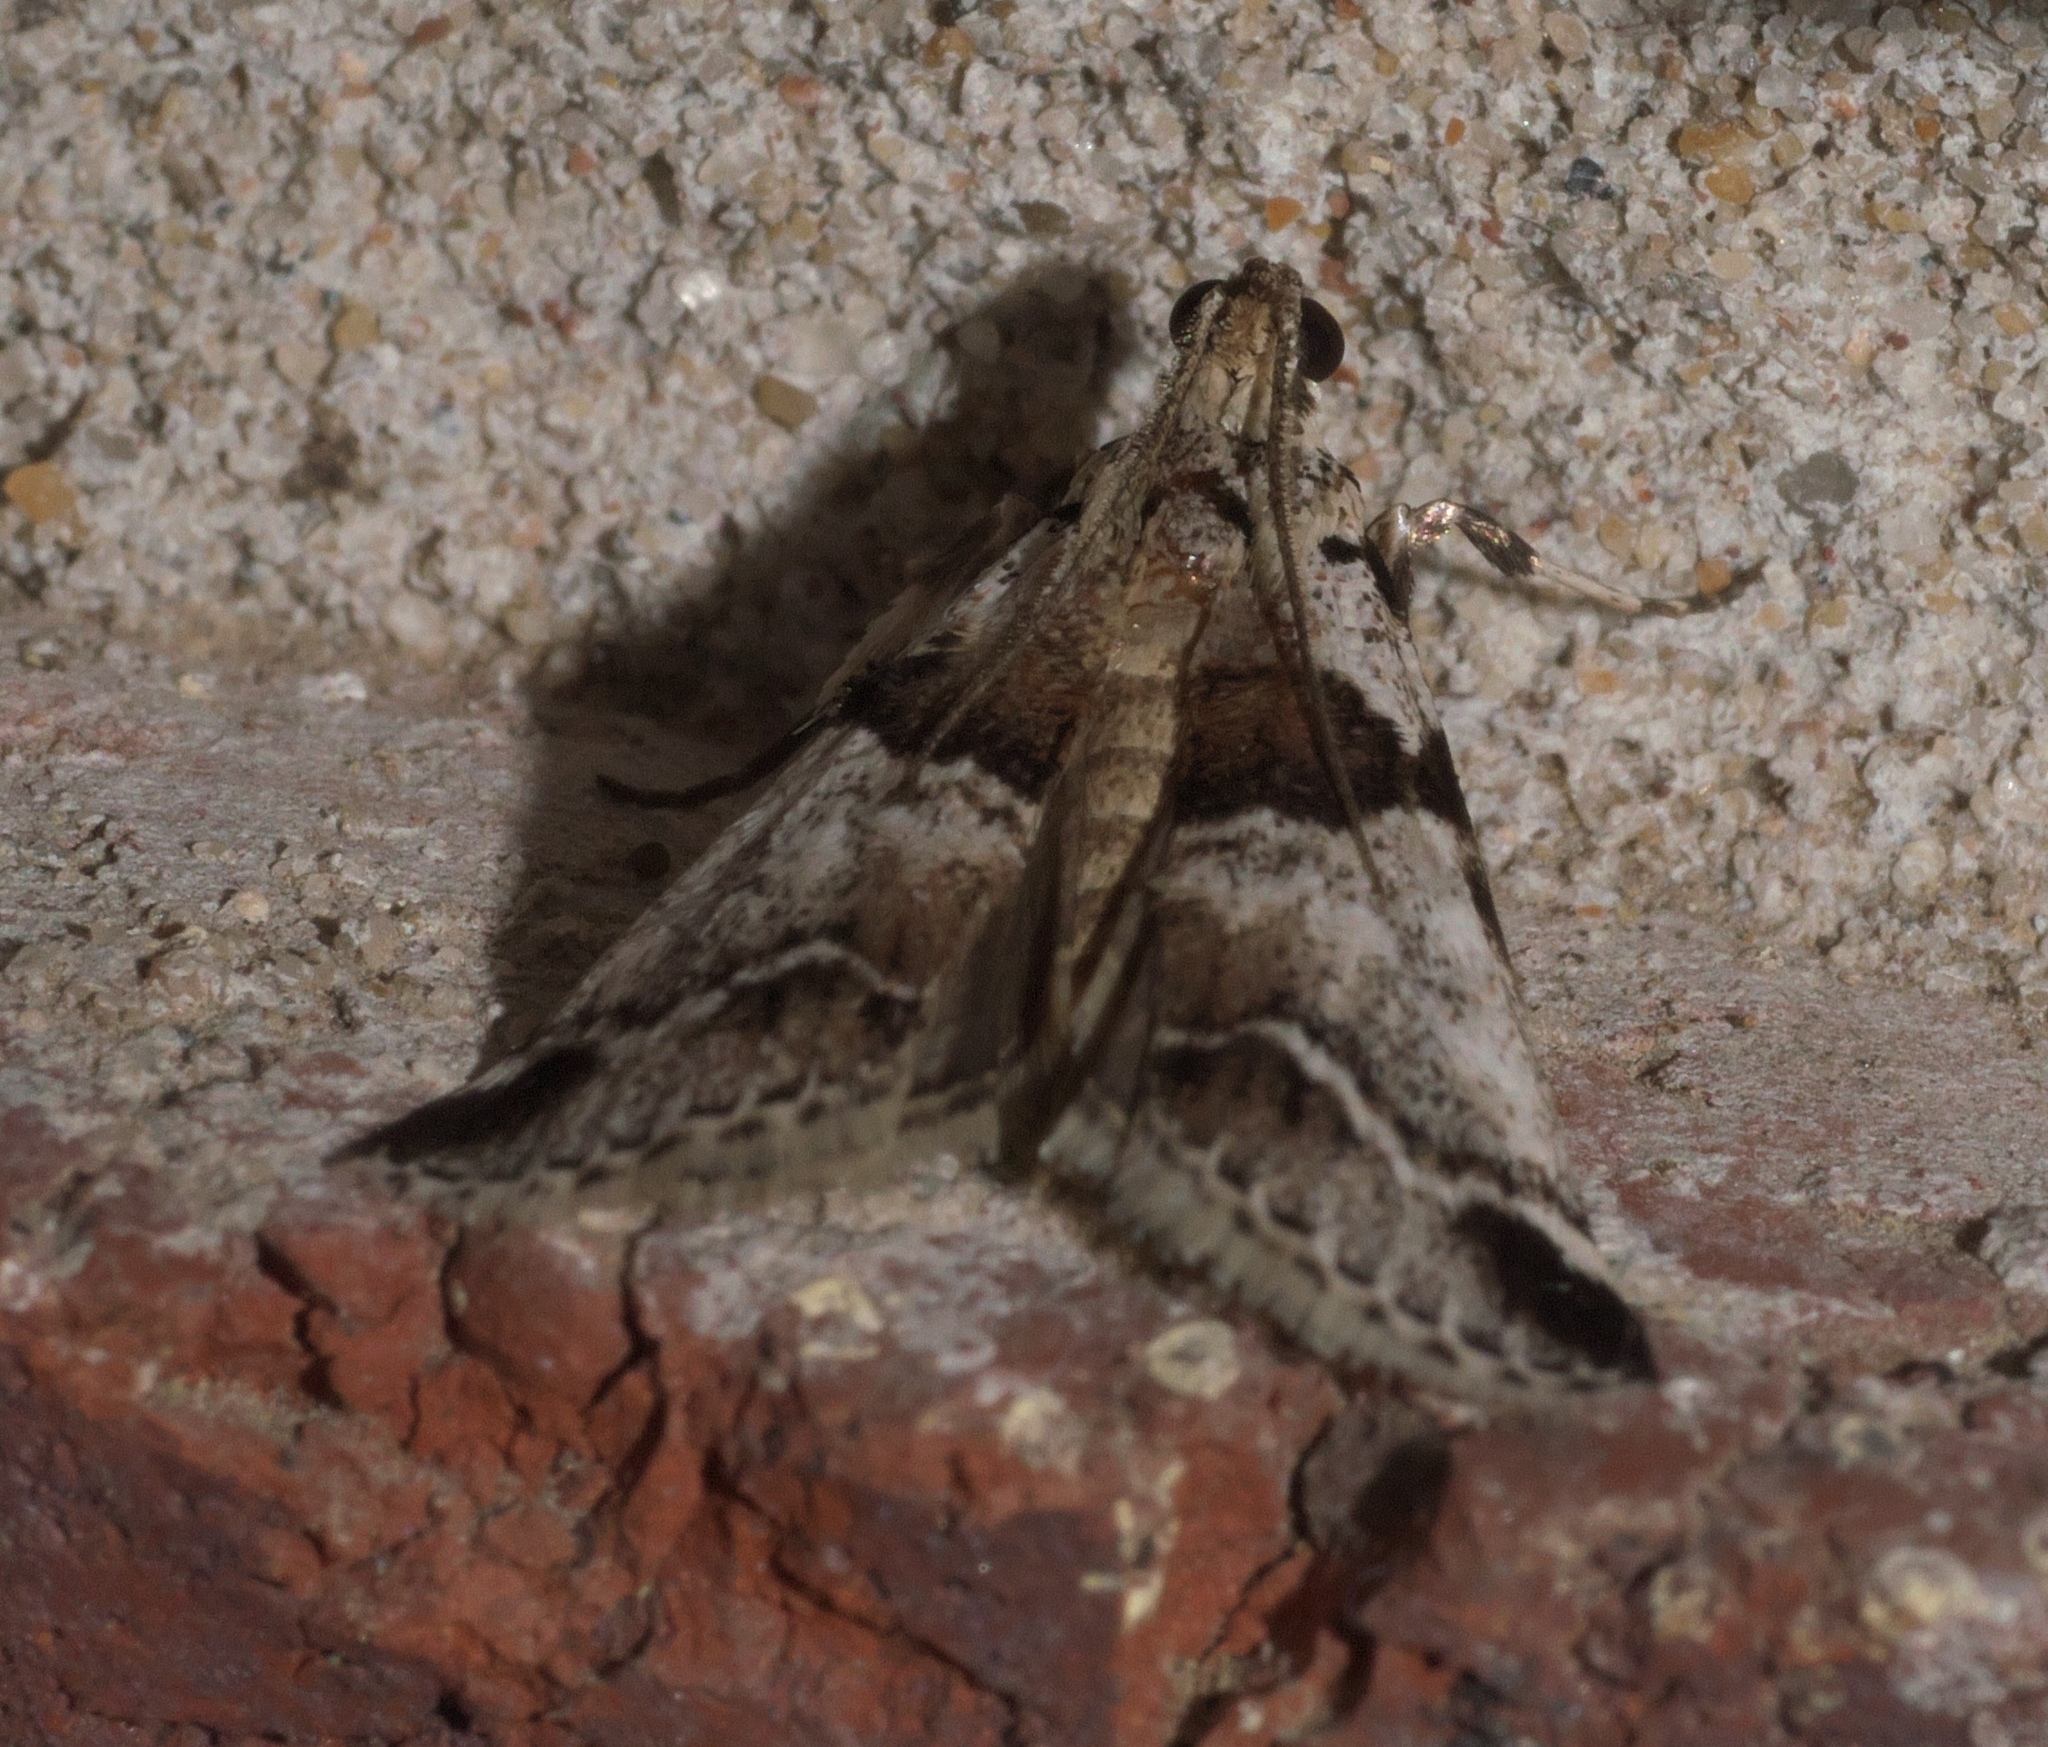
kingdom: Animalia
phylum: Arthropoda
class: Insecta
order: Lepidoptera
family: Pyralidae
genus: Tallula
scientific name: Tallula atrifascialis
